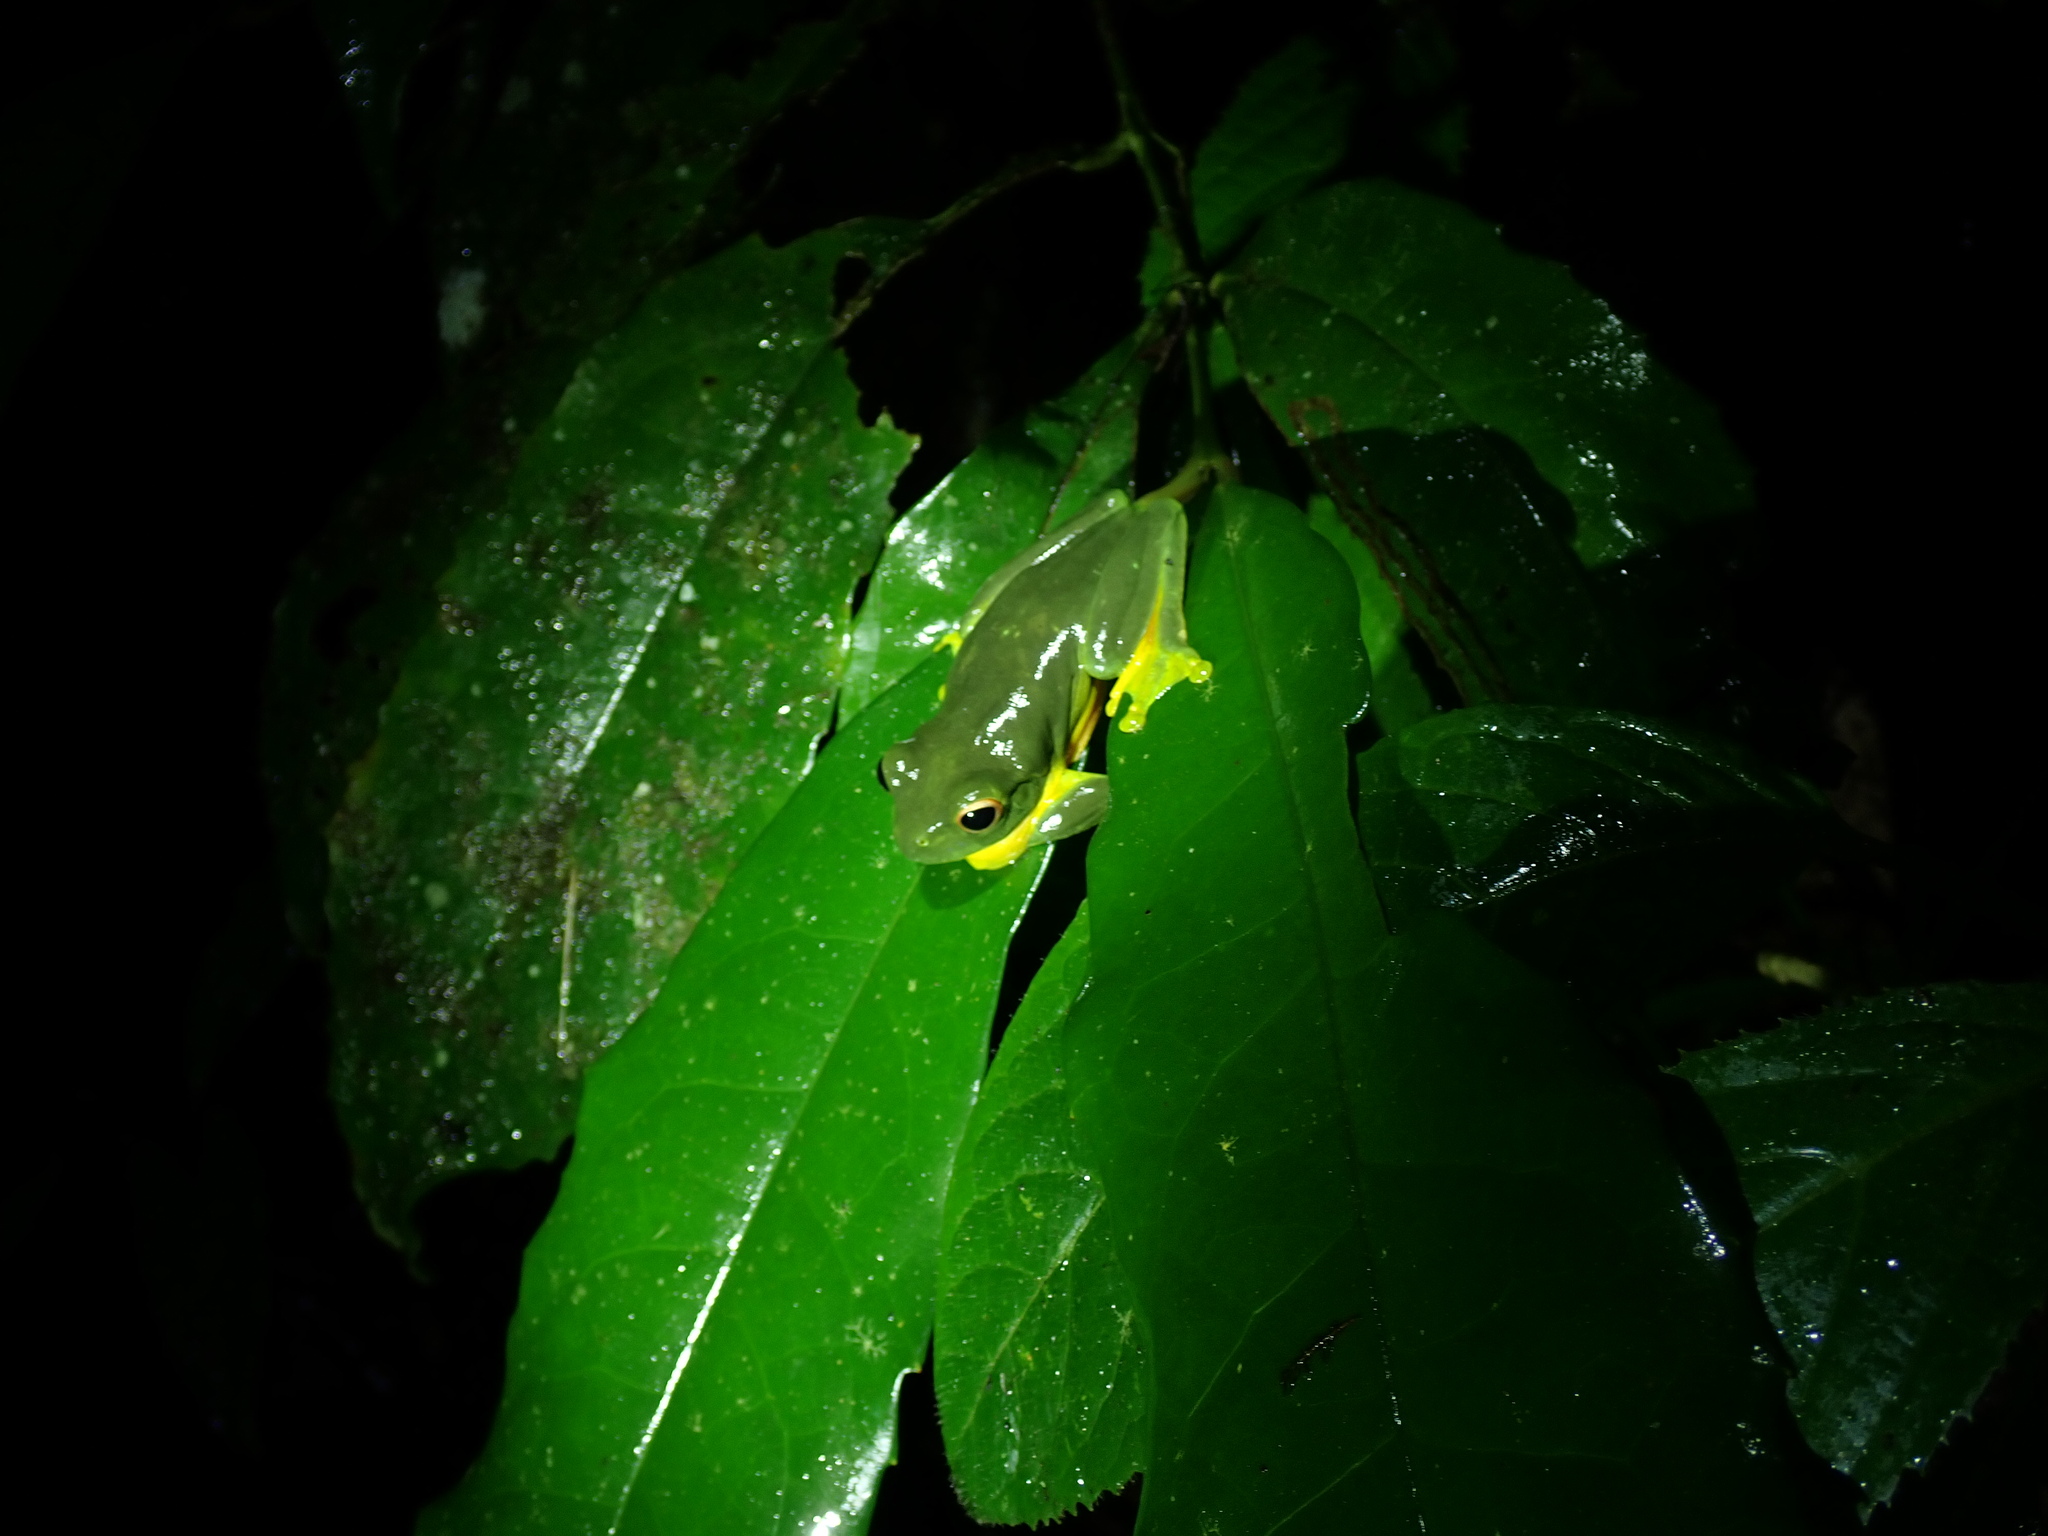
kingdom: Animalia
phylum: Chordata
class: Amphibia
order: Anura
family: Pelodryadidae
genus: Ranoidea
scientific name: Ranoidea xanthomera
